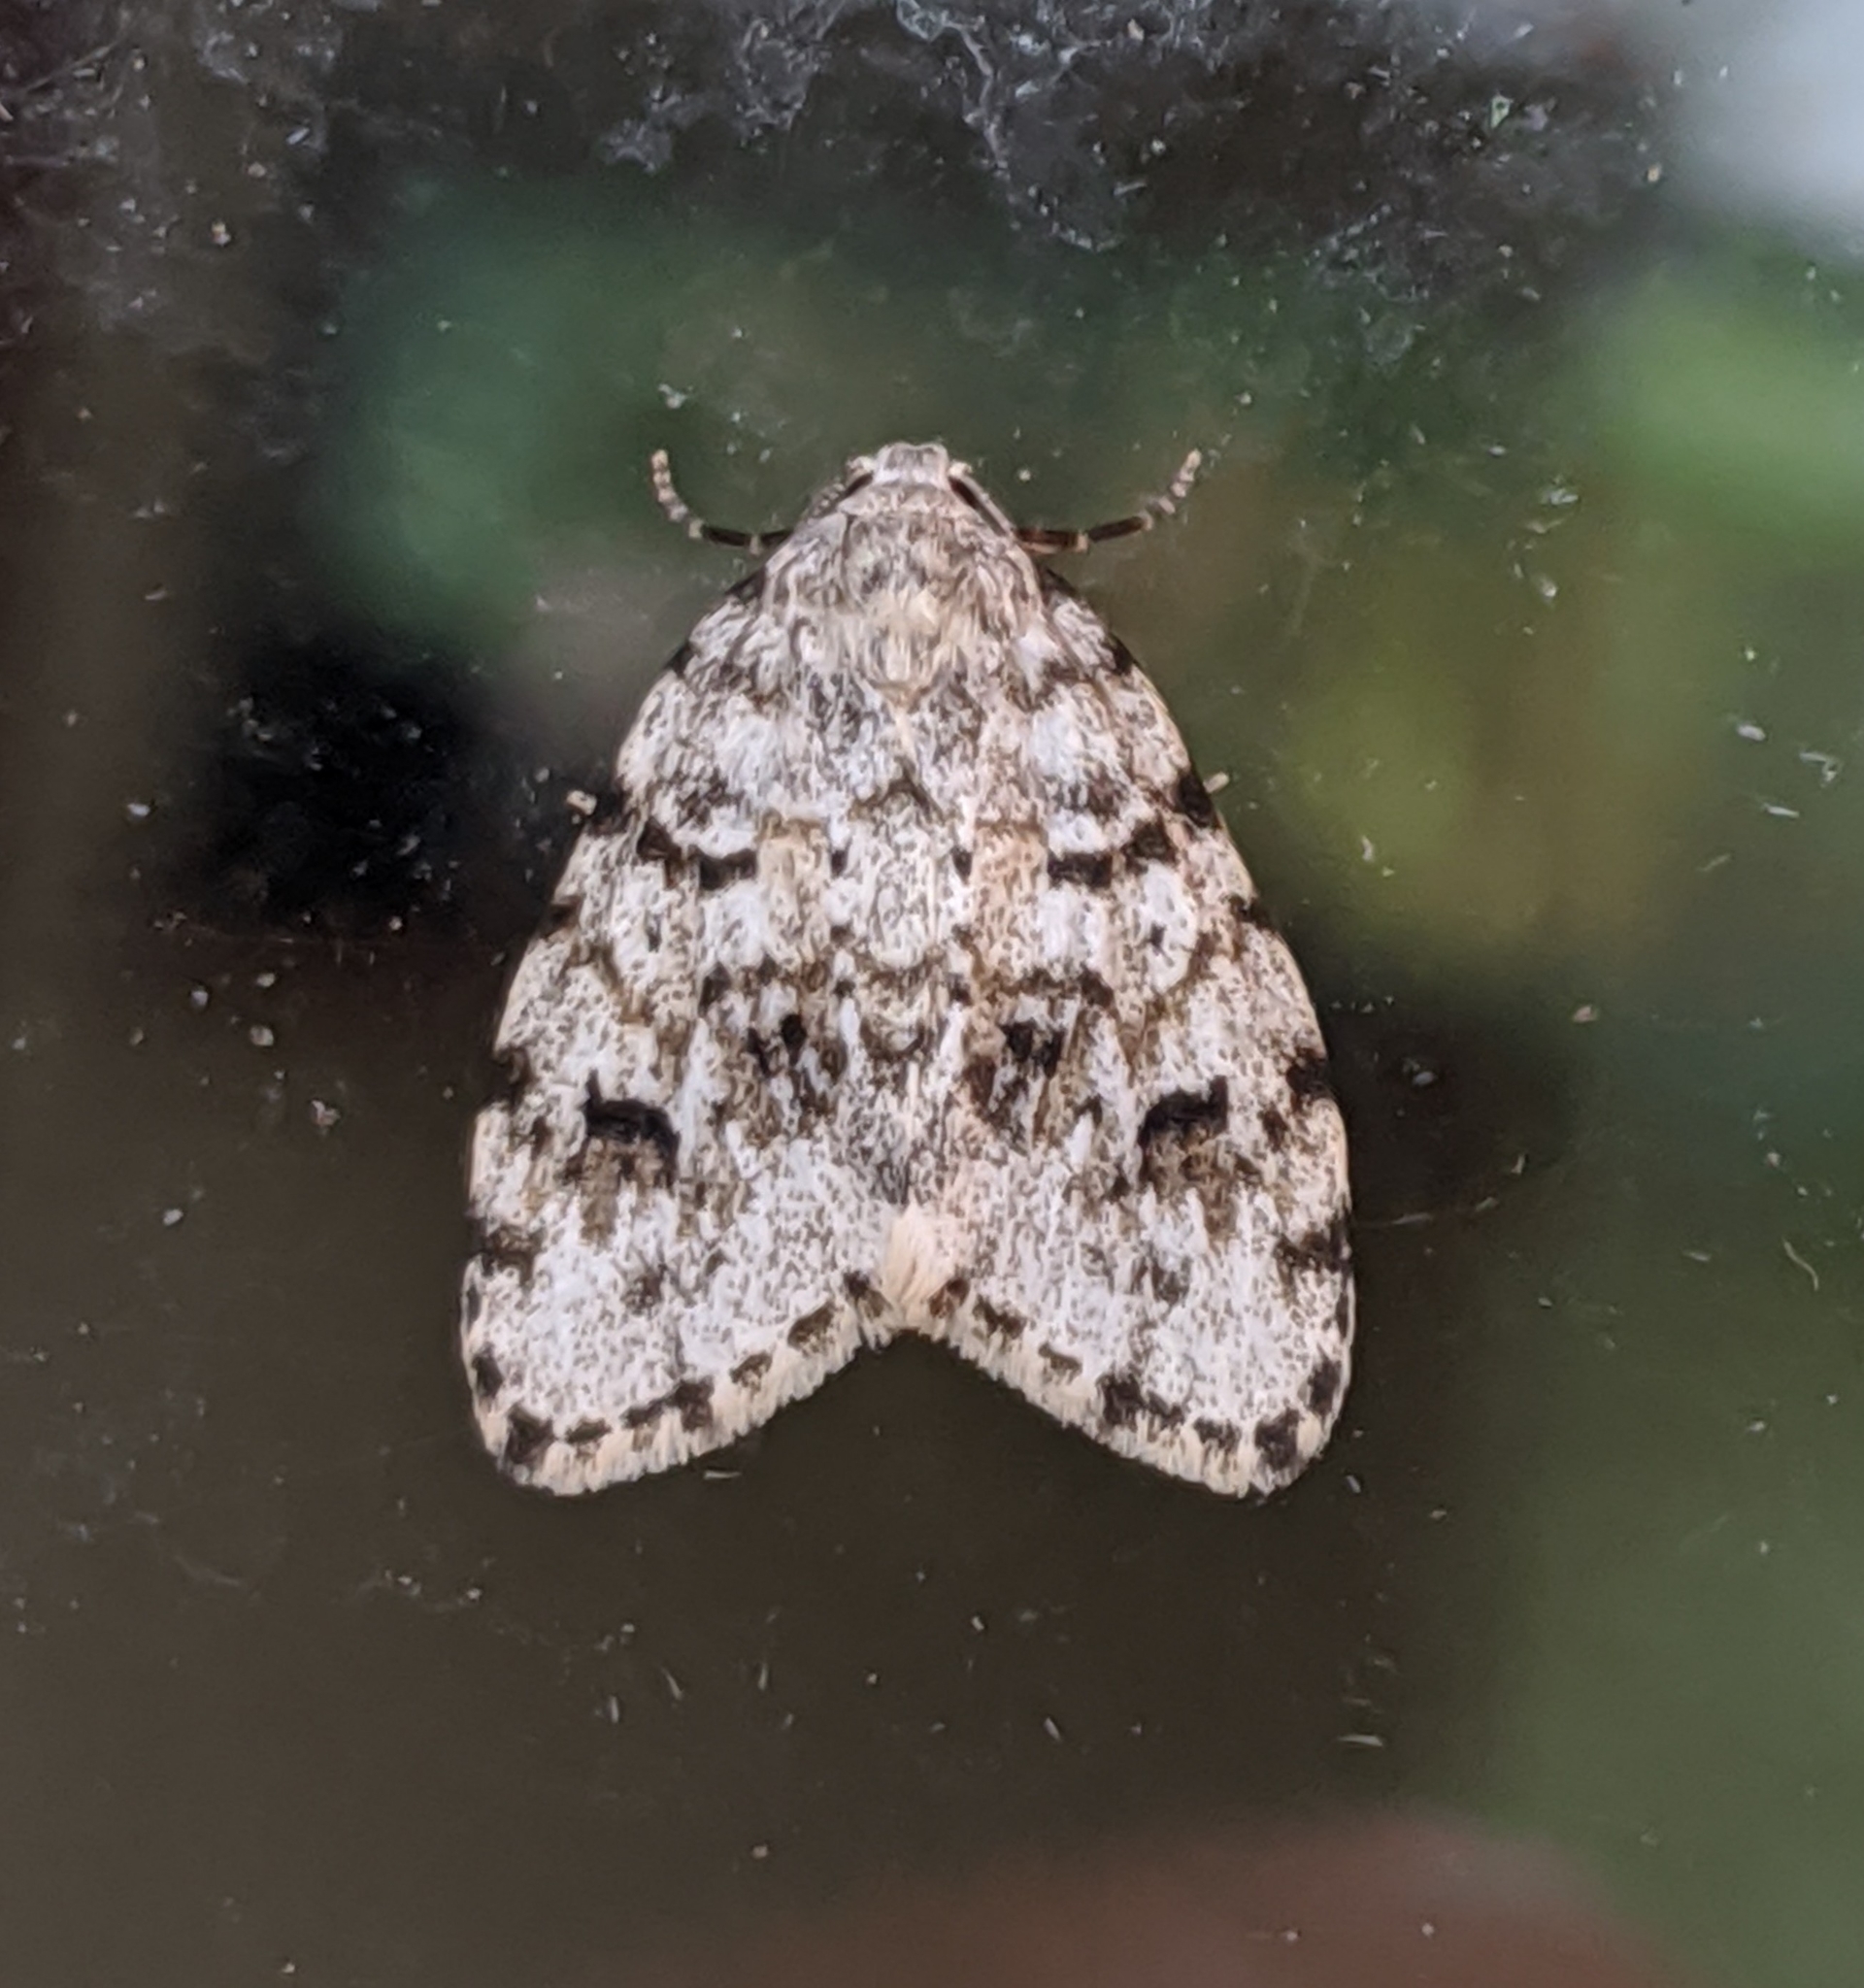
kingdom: Animalia
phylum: Arthropoda
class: Insecta
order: Lepidoptera
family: Erebidae
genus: Clemensia
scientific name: Clemensia umbrata
